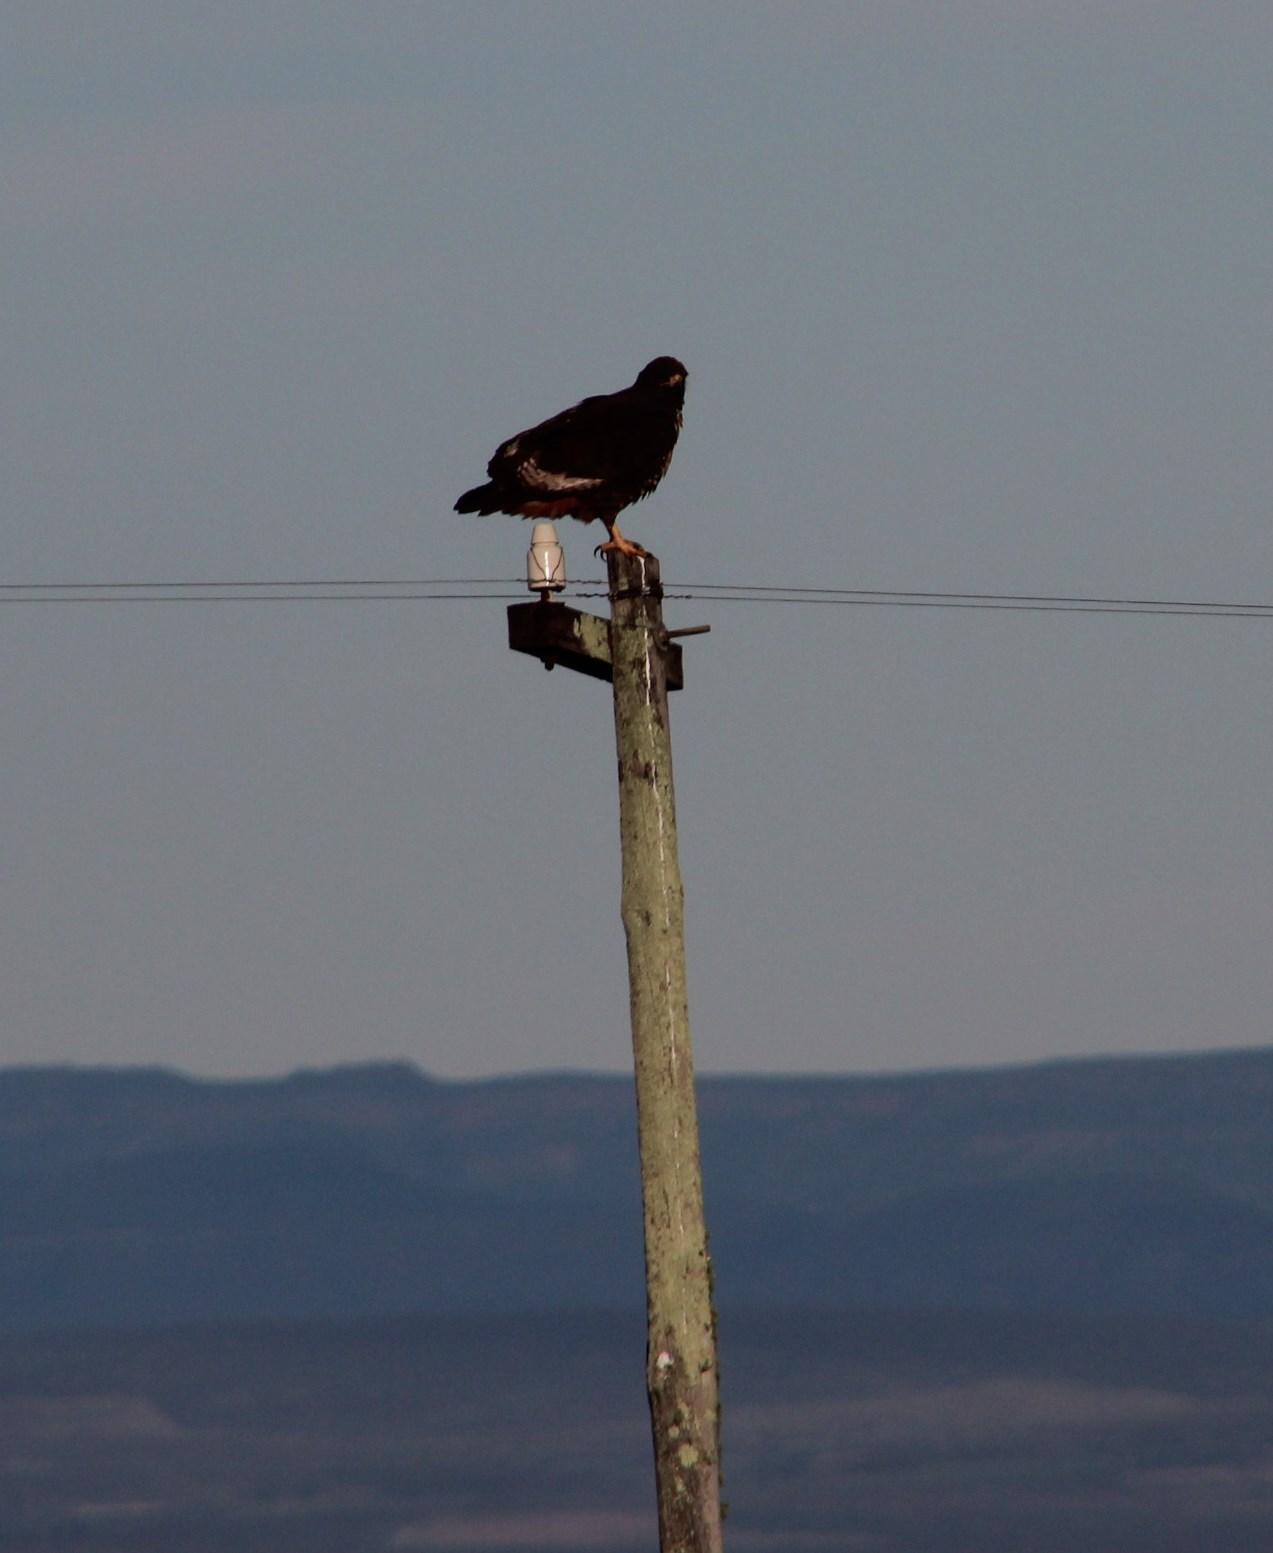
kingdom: Animalia
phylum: Chordata
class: Aves
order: Accipitriformes
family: Accipitridae
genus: Buteo
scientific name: Buteo rufofuscus
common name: Jackal buzzard
